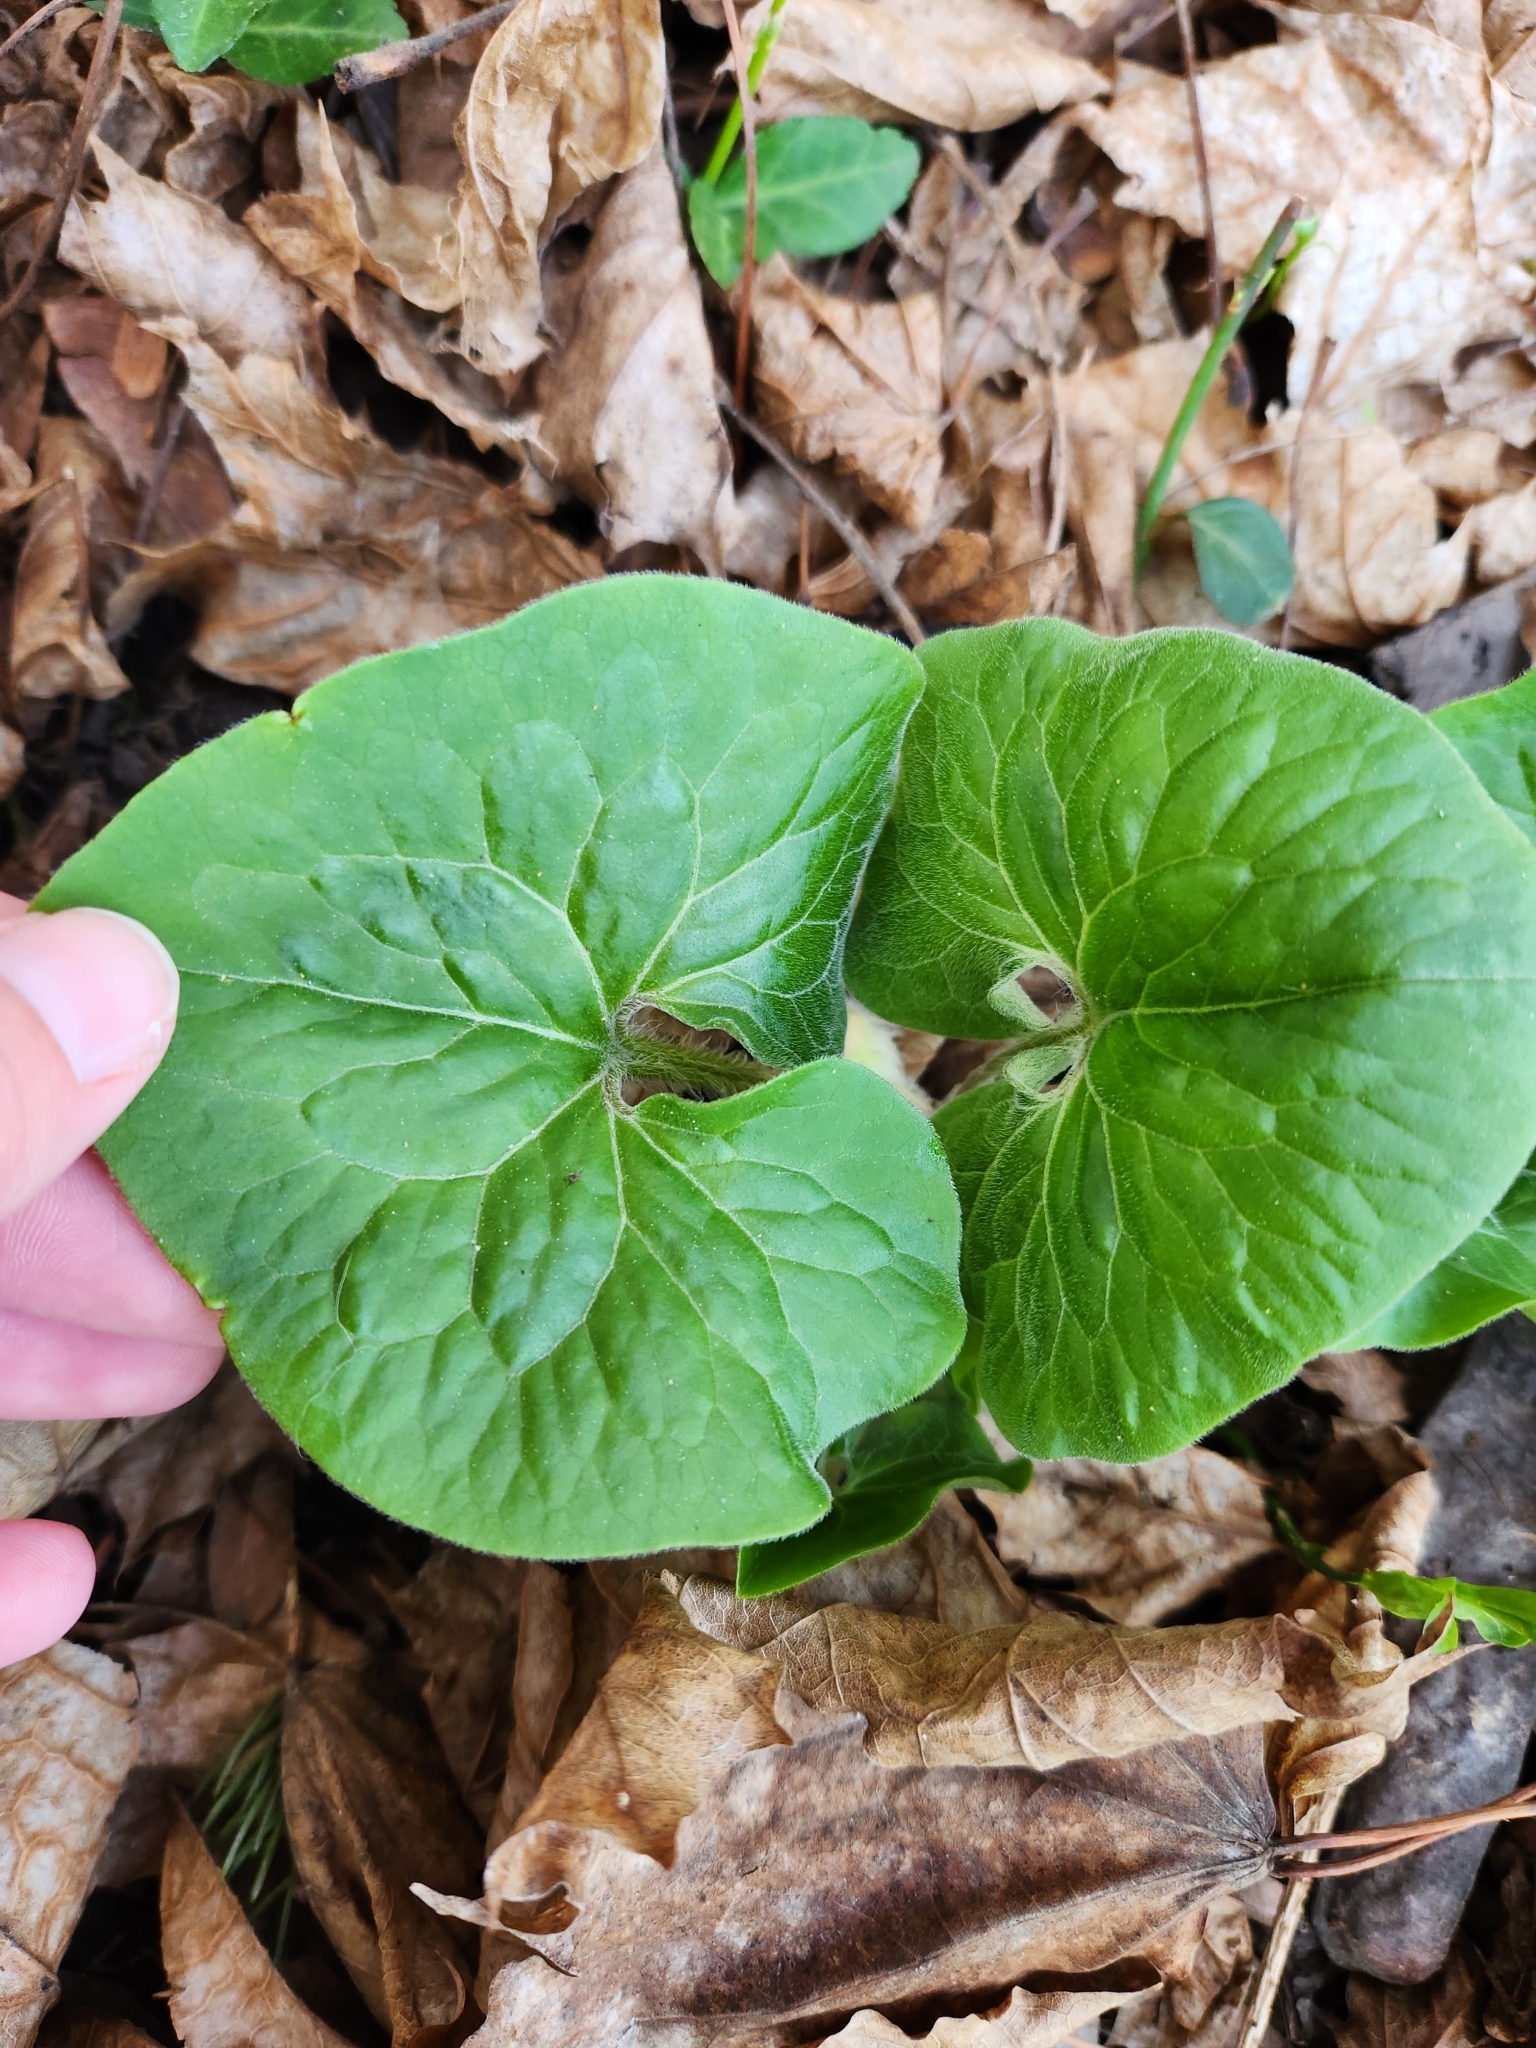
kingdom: Plantae
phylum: Tracheophyta
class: Magnoliopsida
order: Piperales
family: Aristolochiaceae
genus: Asarum
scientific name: Asarum canadense
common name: Wild ginger
